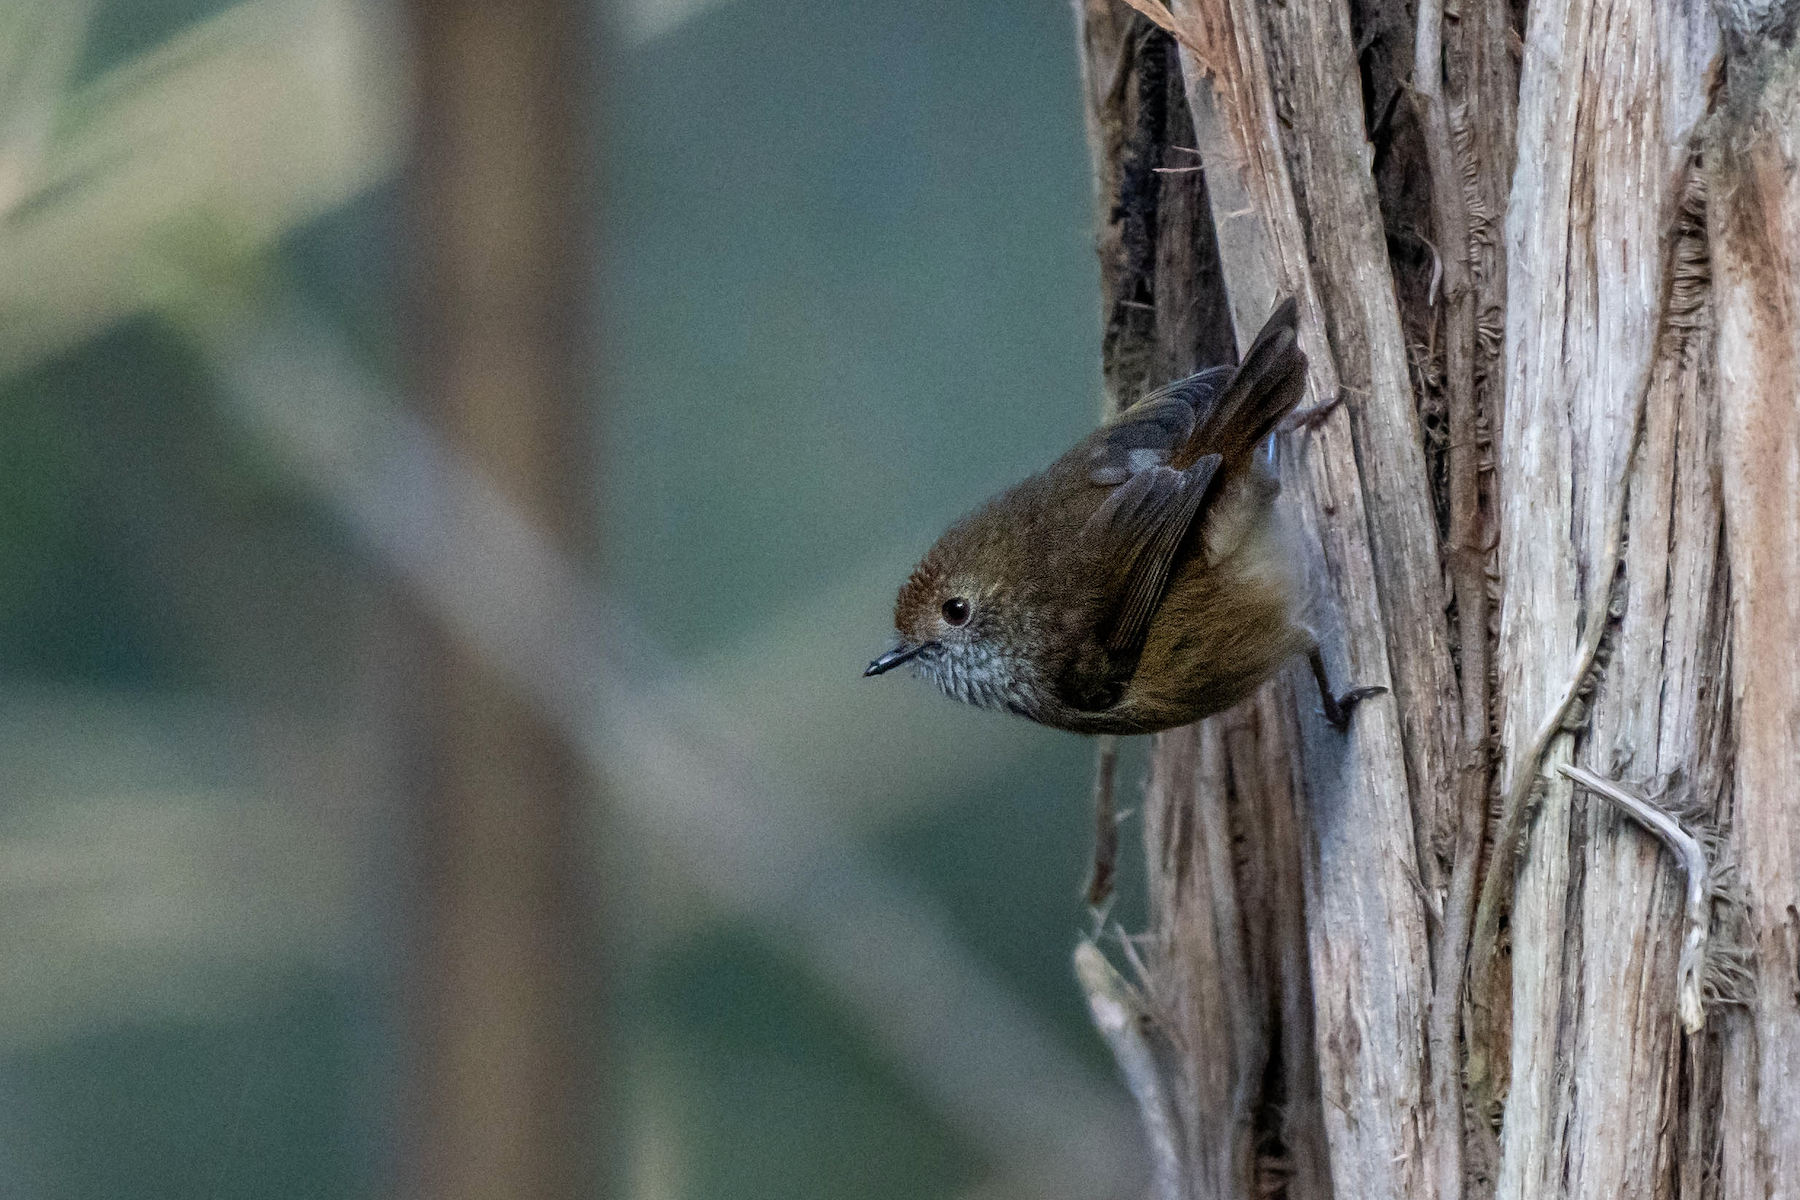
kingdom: Animalia
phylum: Chordata
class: Aves
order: Passeriformes
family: Acanthizidae
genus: Acanthiza
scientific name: Acanthiza pusilla
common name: Brown thornbill
